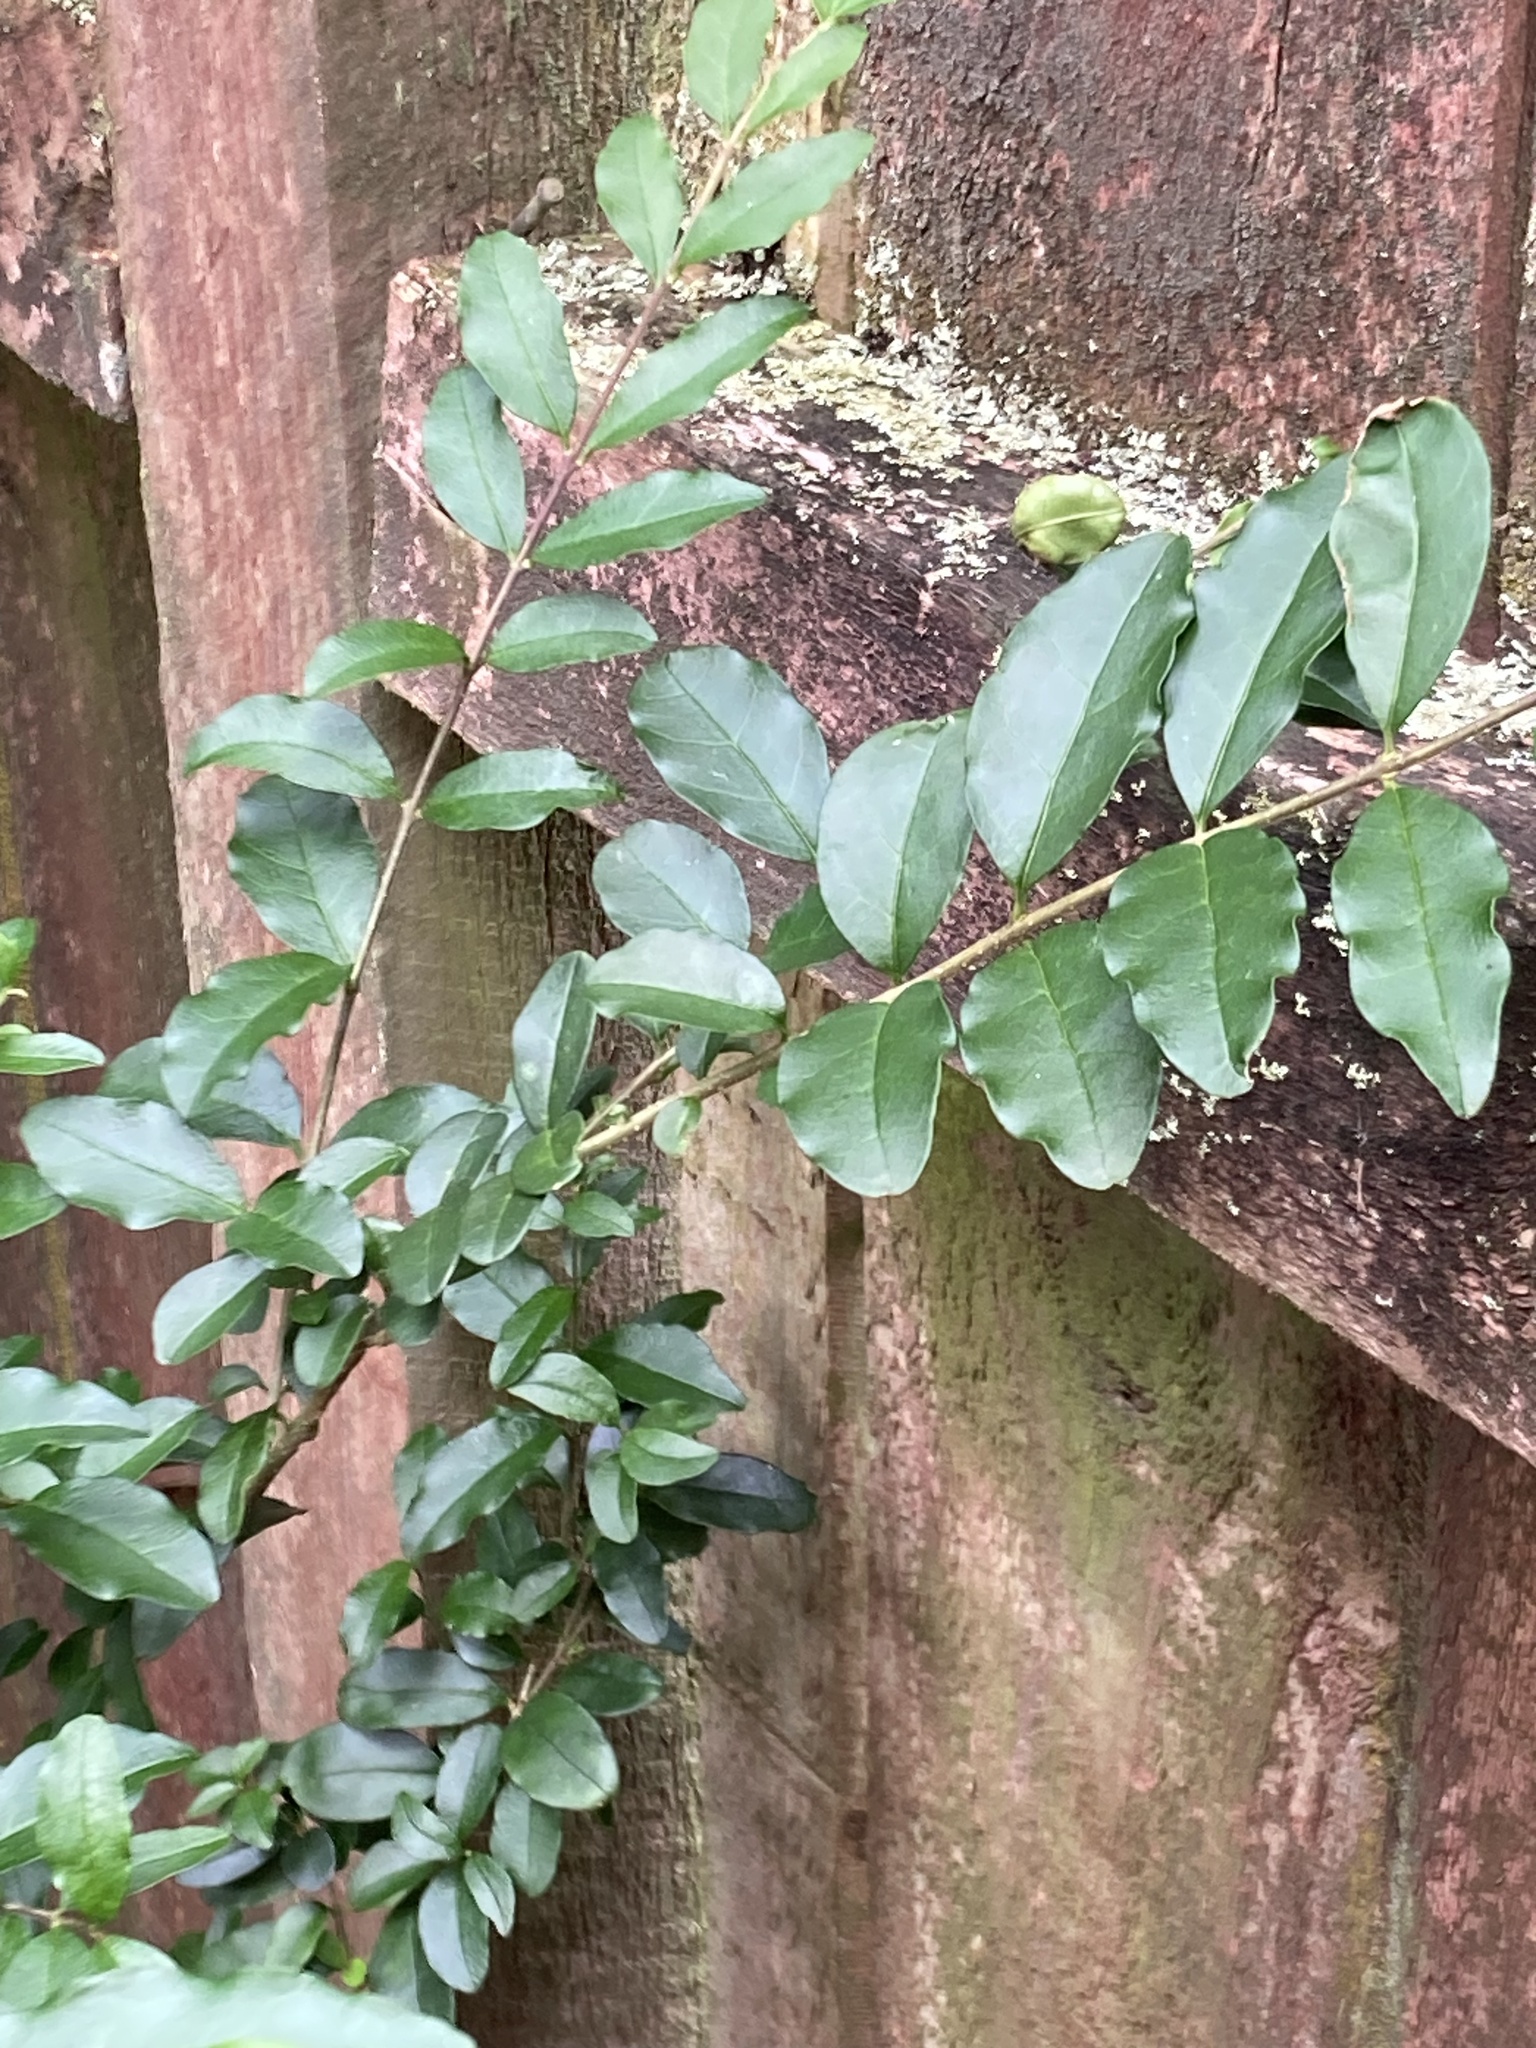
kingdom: Plantae
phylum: Tracheophyta
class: Magnoliopsida
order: Lamiales
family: Oleaceae
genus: Ligustrum
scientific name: Ligustrum sinense
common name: Chinese privet
